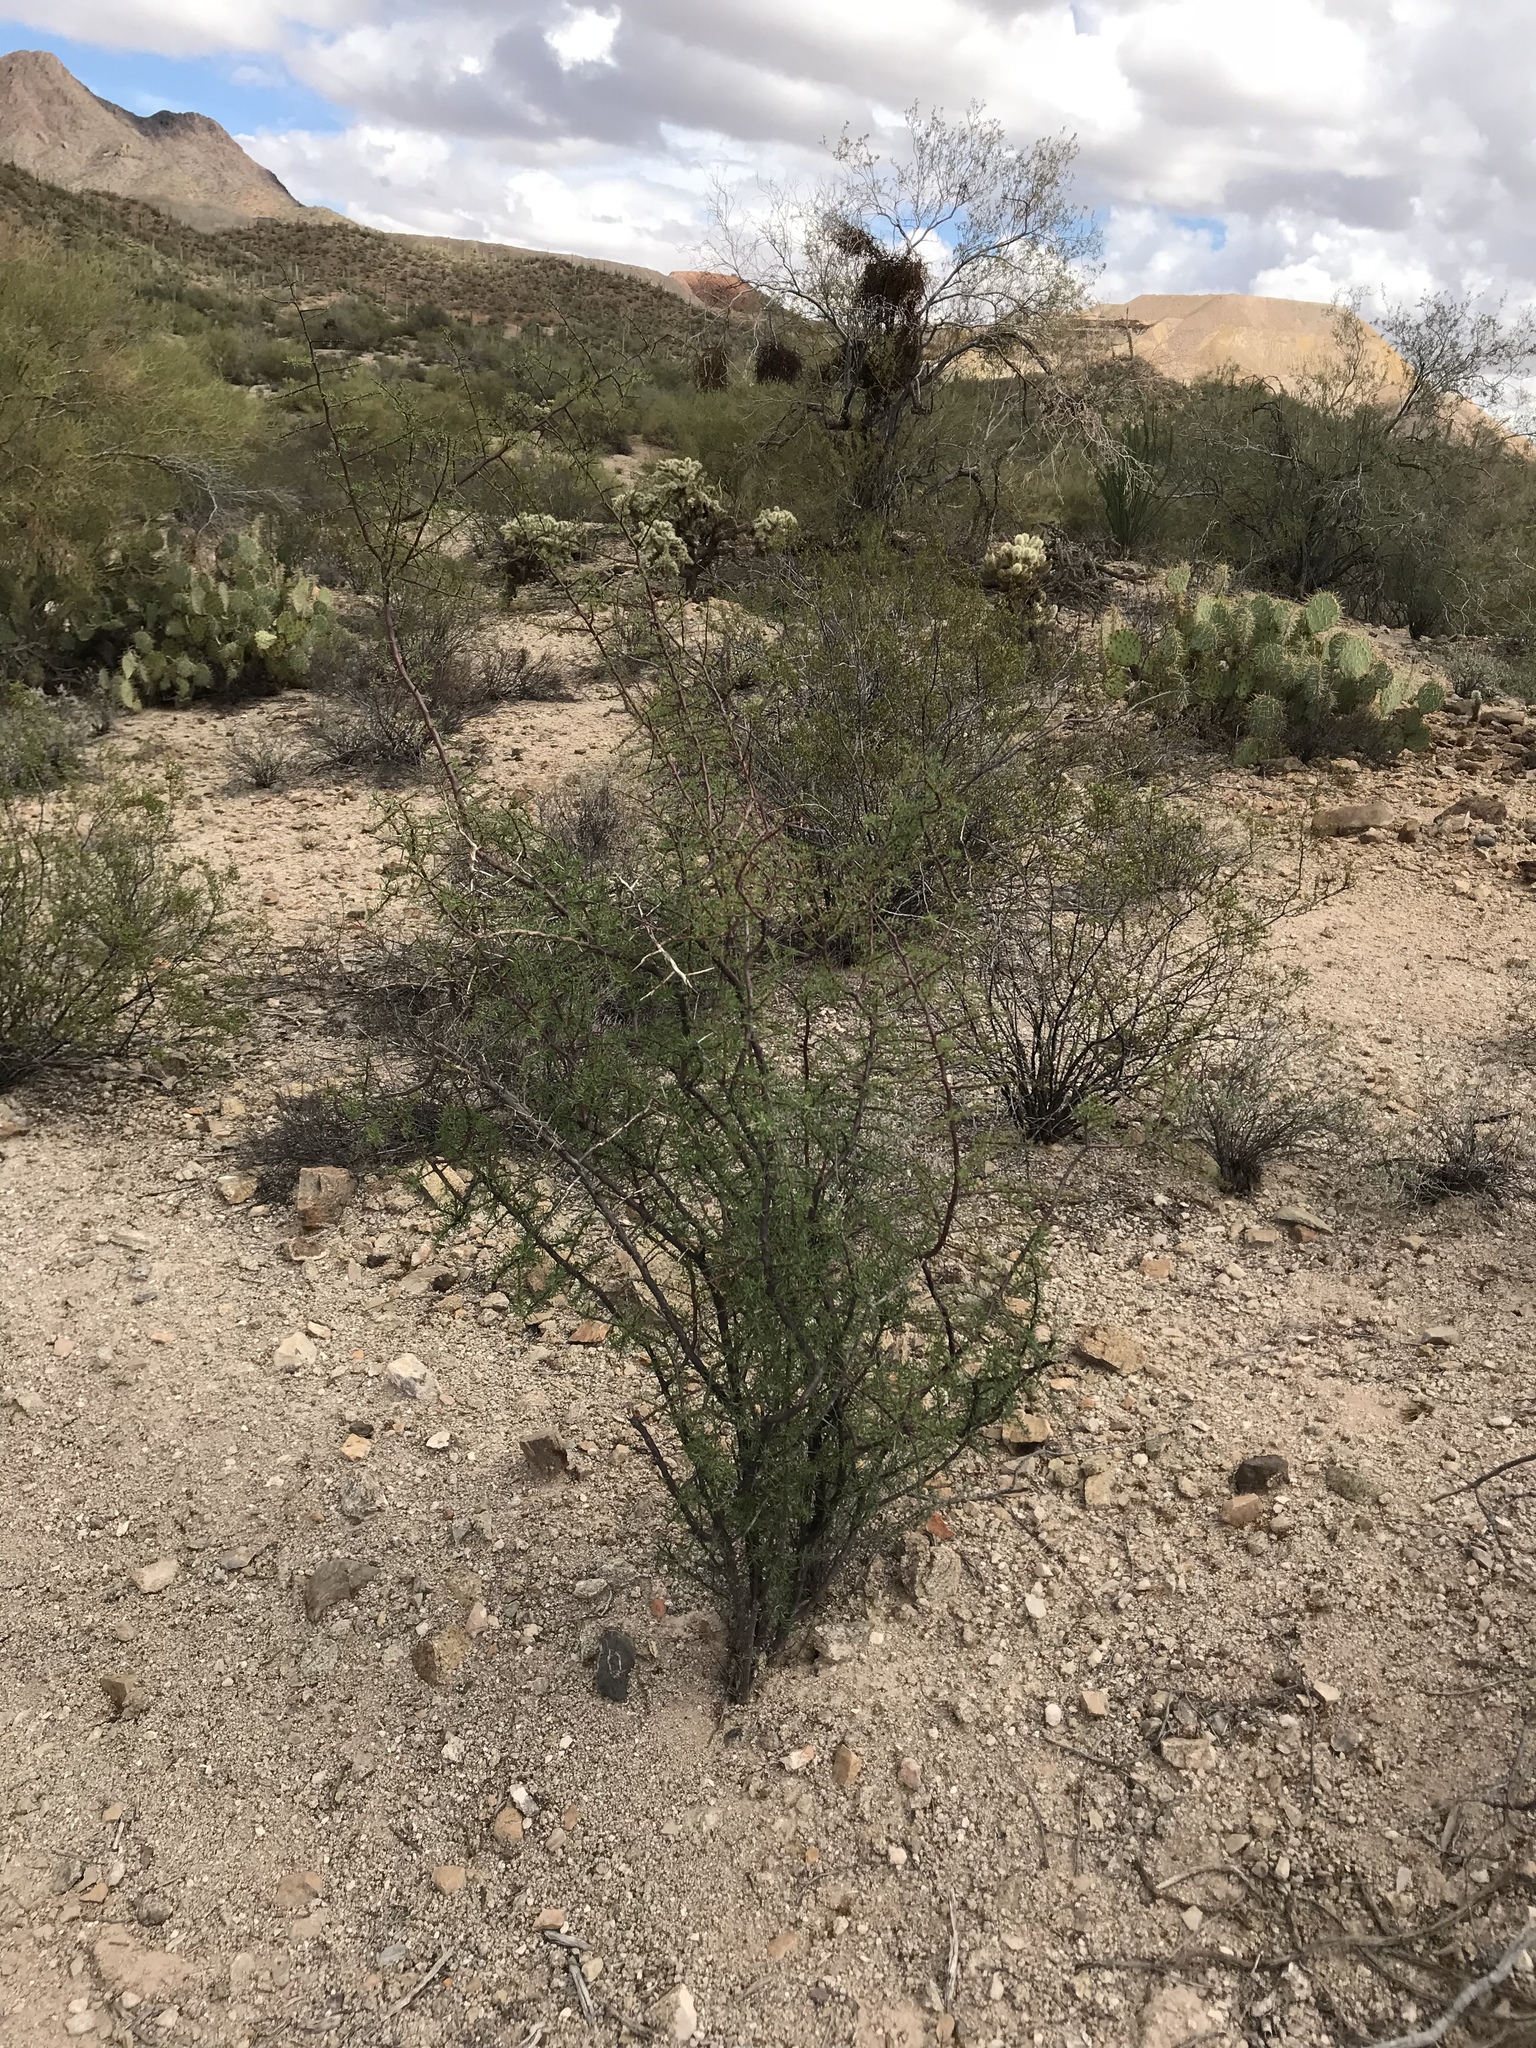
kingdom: Plantae
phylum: Tracheophyta
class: Magnoliopsida
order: Solanales
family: Solanaceae
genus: Lycium
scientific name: Lycium berlandieri
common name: Berlandier wolfberry
